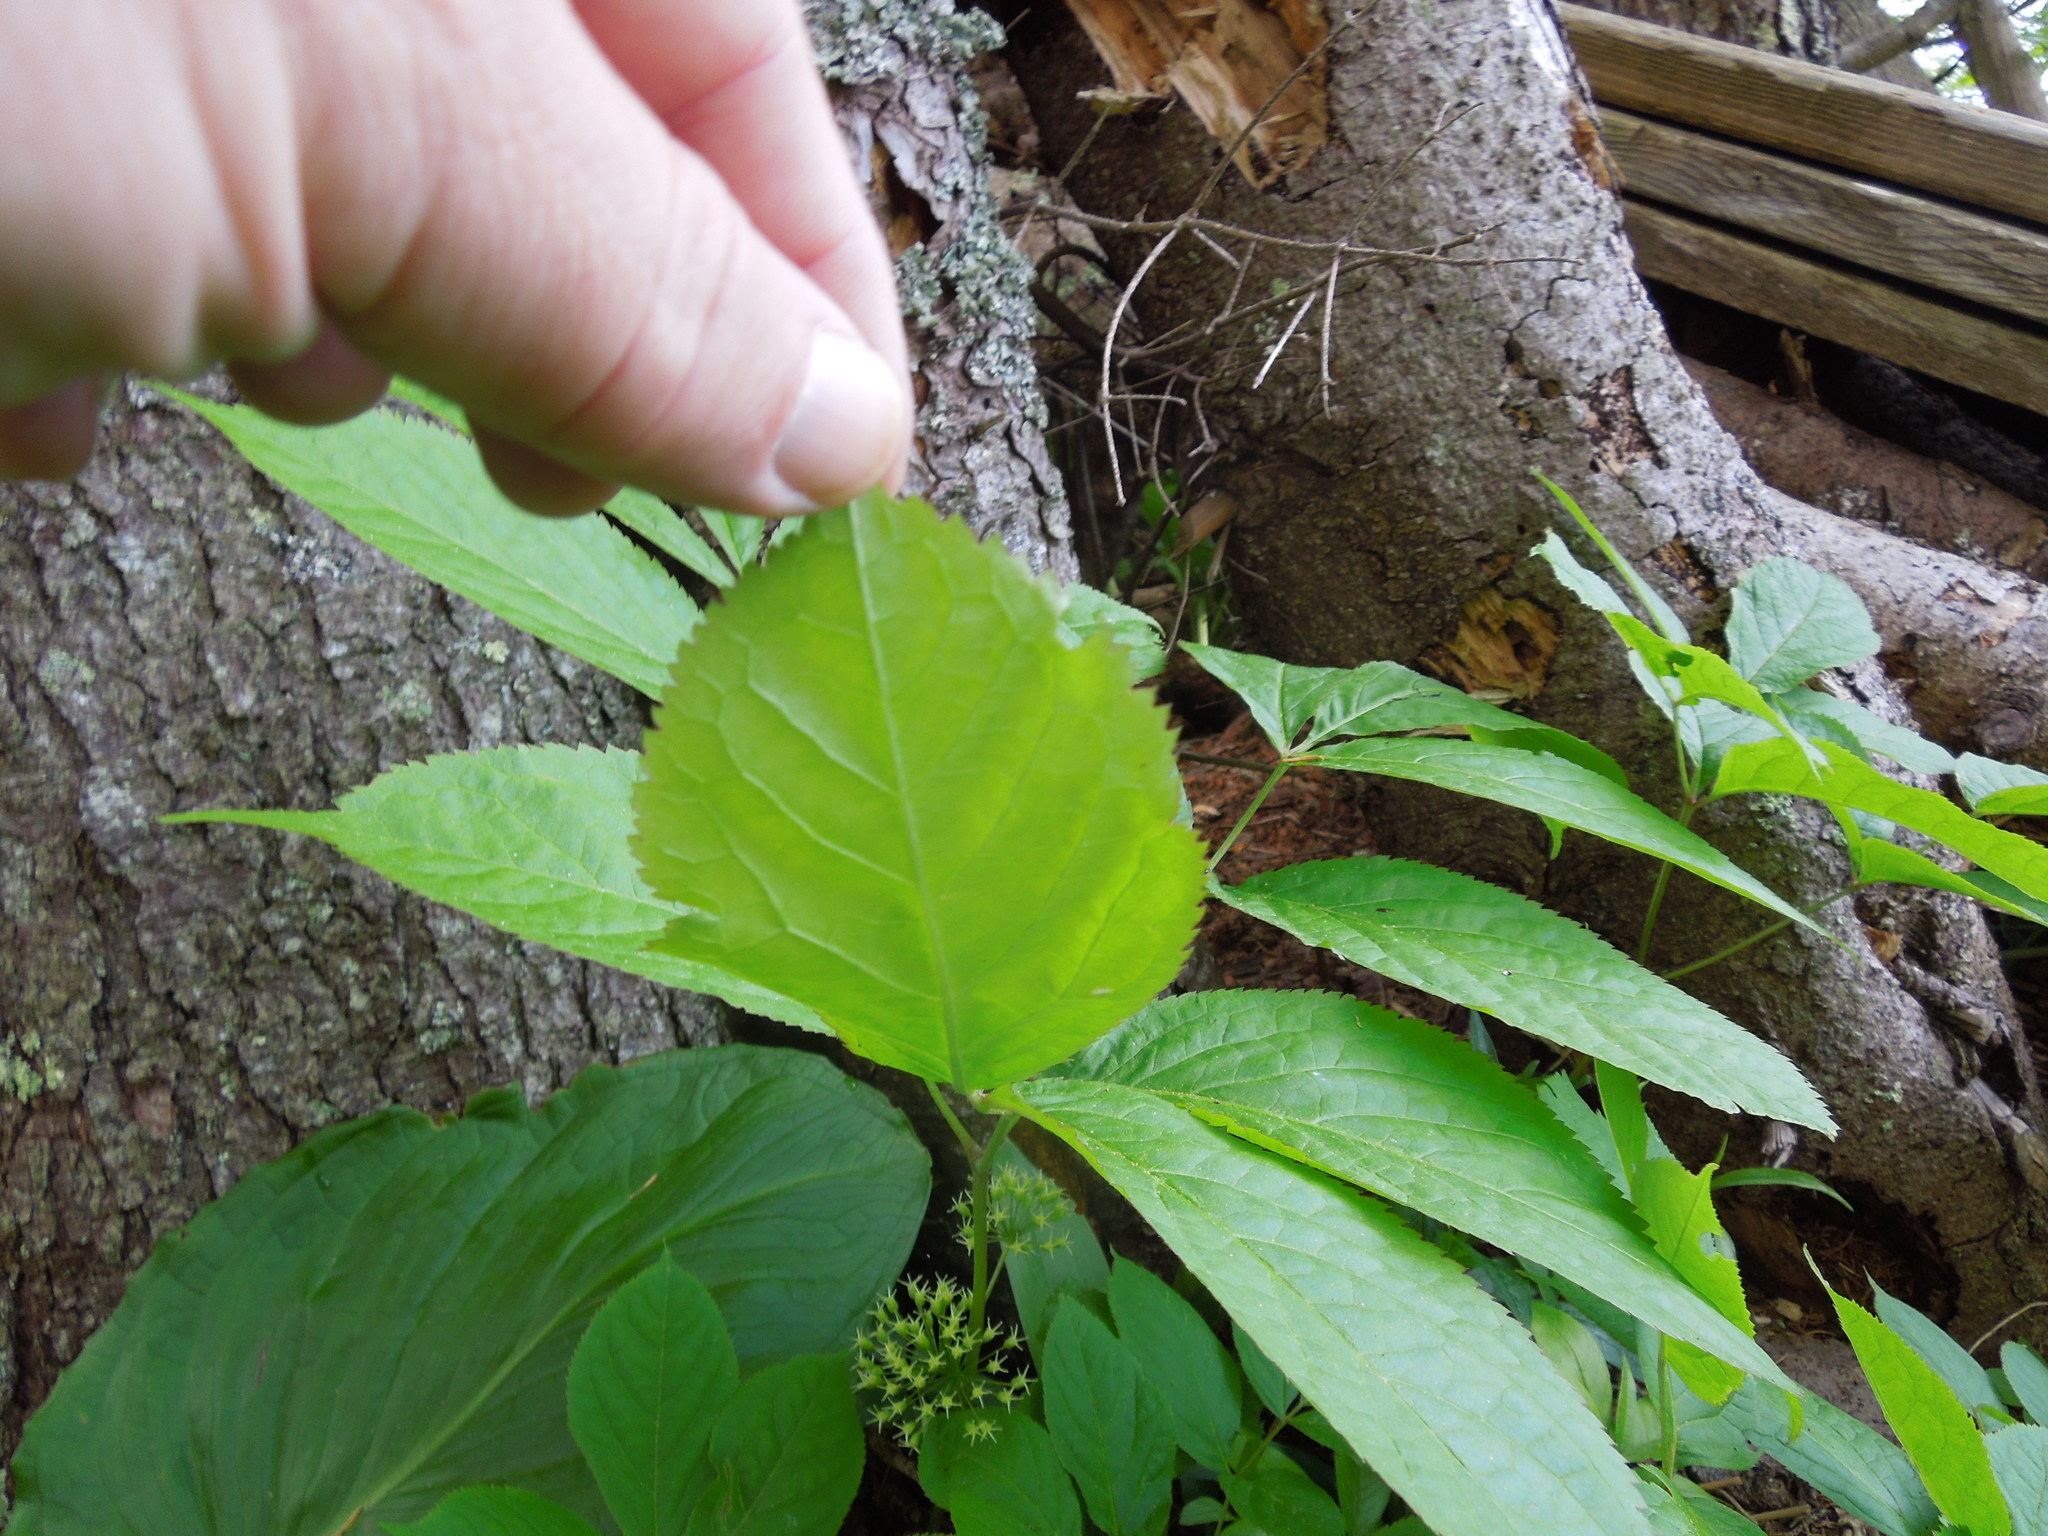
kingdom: Plantae
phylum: Tracheophyta
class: Magnoliopsida
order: Apiales
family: Araliaceae
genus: Aralia
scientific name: Aralia nudicaulis
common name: Wild sarsaparilla
